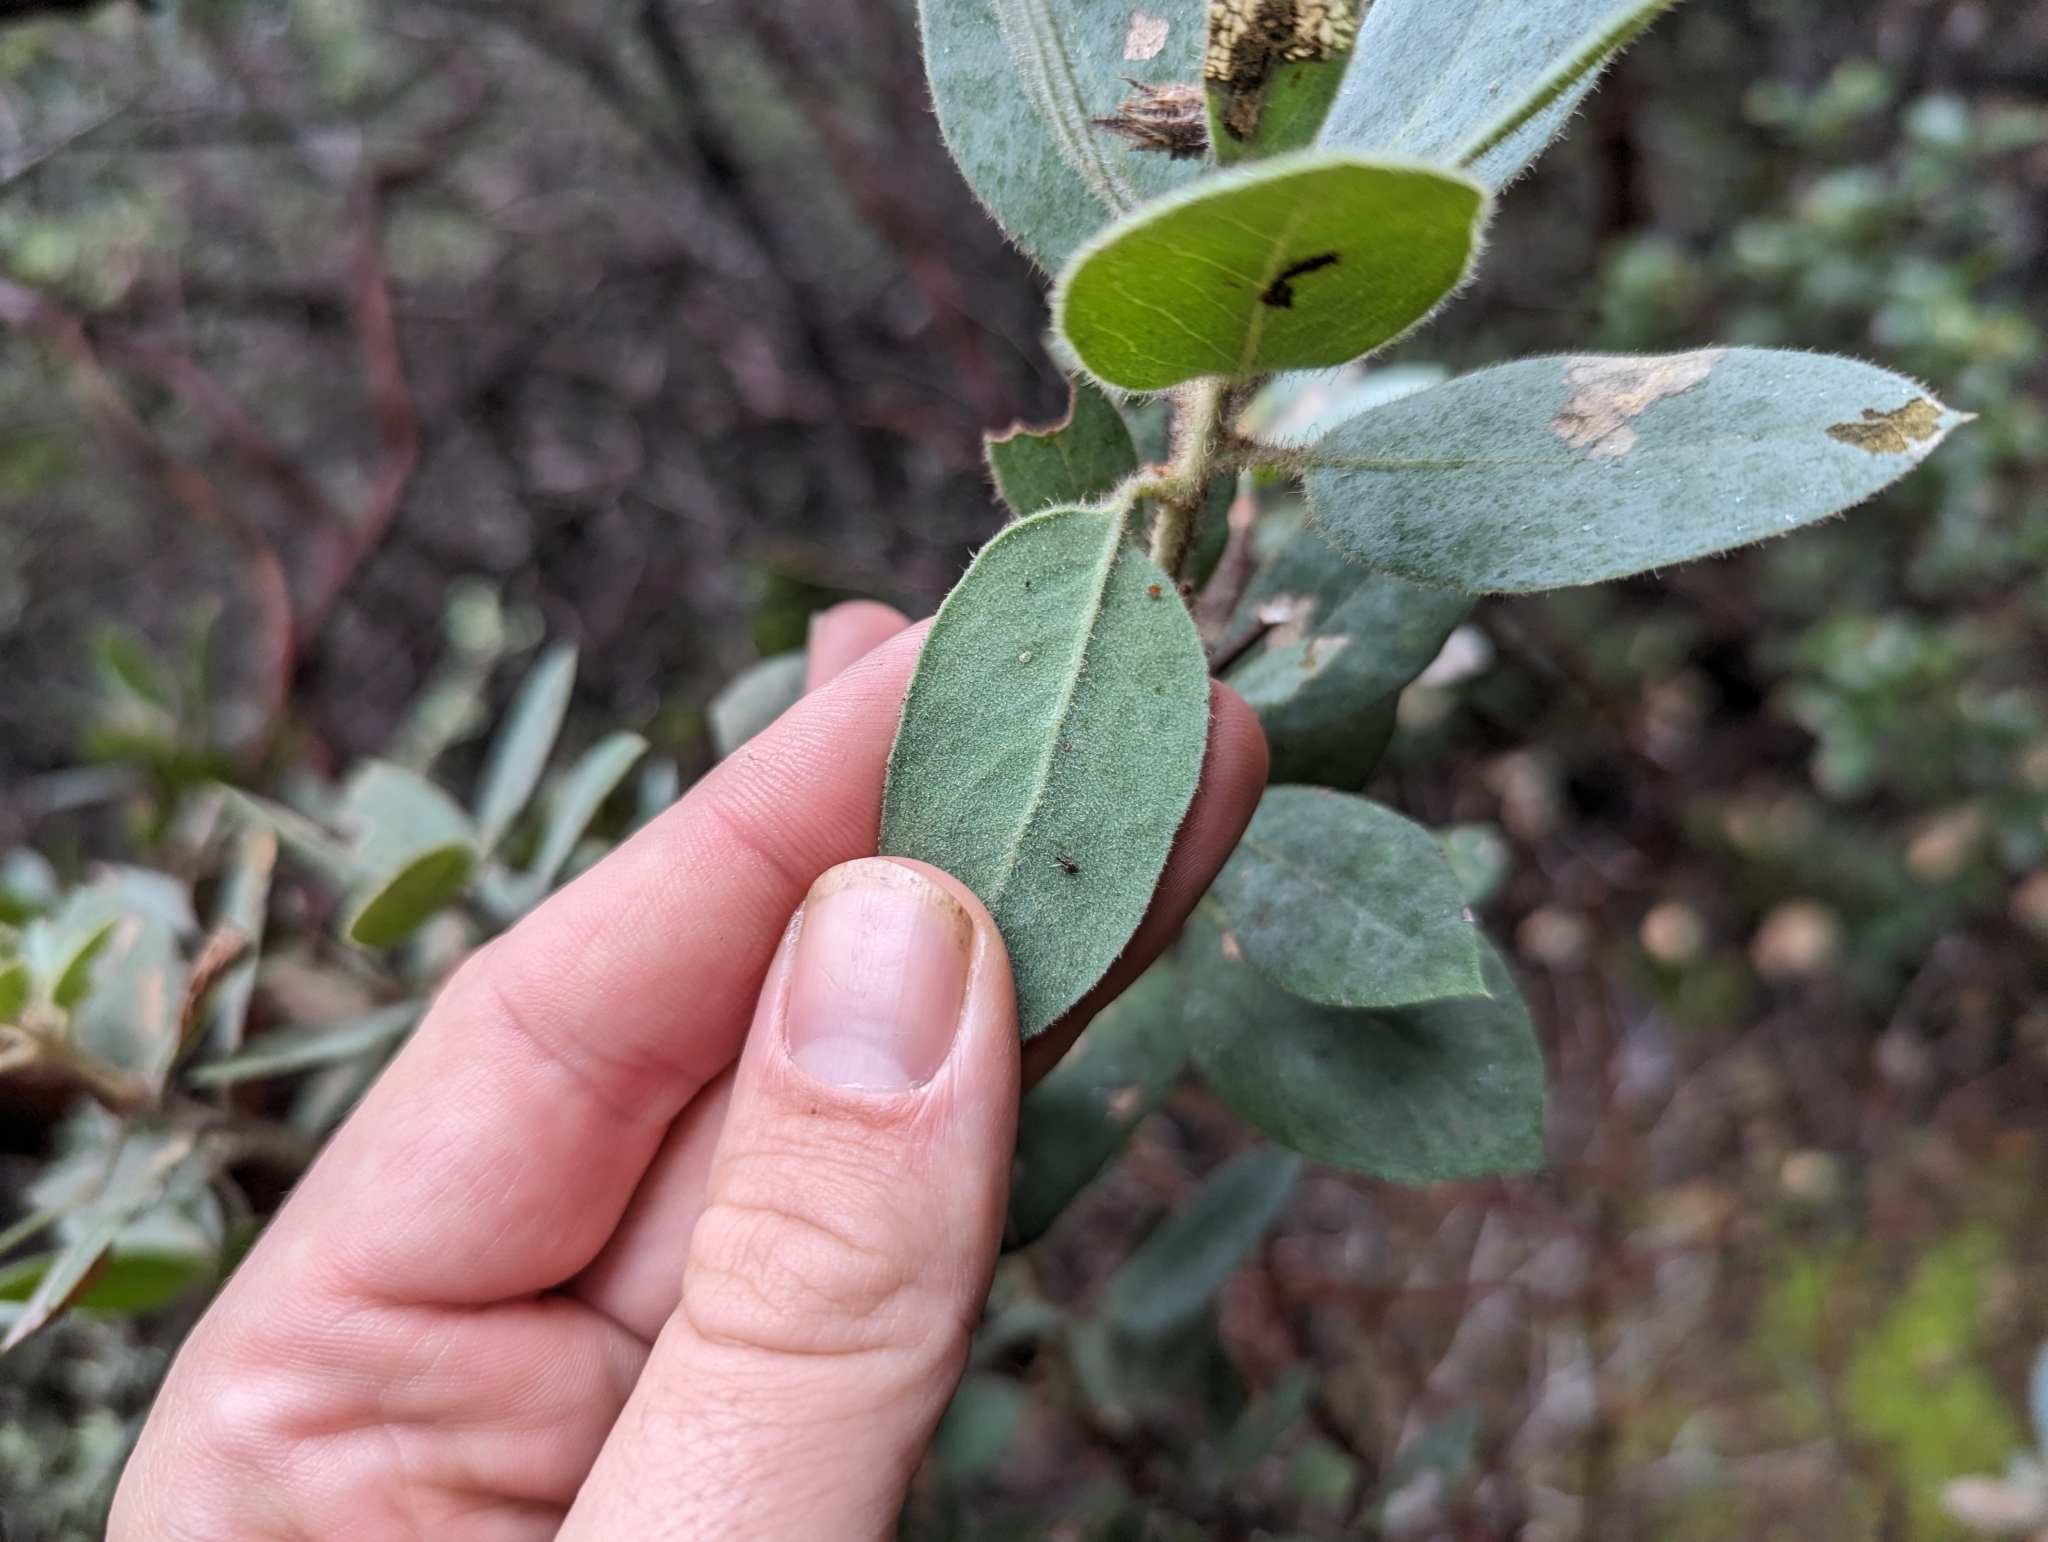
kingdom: Plantae
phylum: Tracheophyta
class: Magnoliopsida
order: Ericales
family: Ericaceae
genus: Arctostaphylos
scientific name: Arctostaphylos glandulosa
